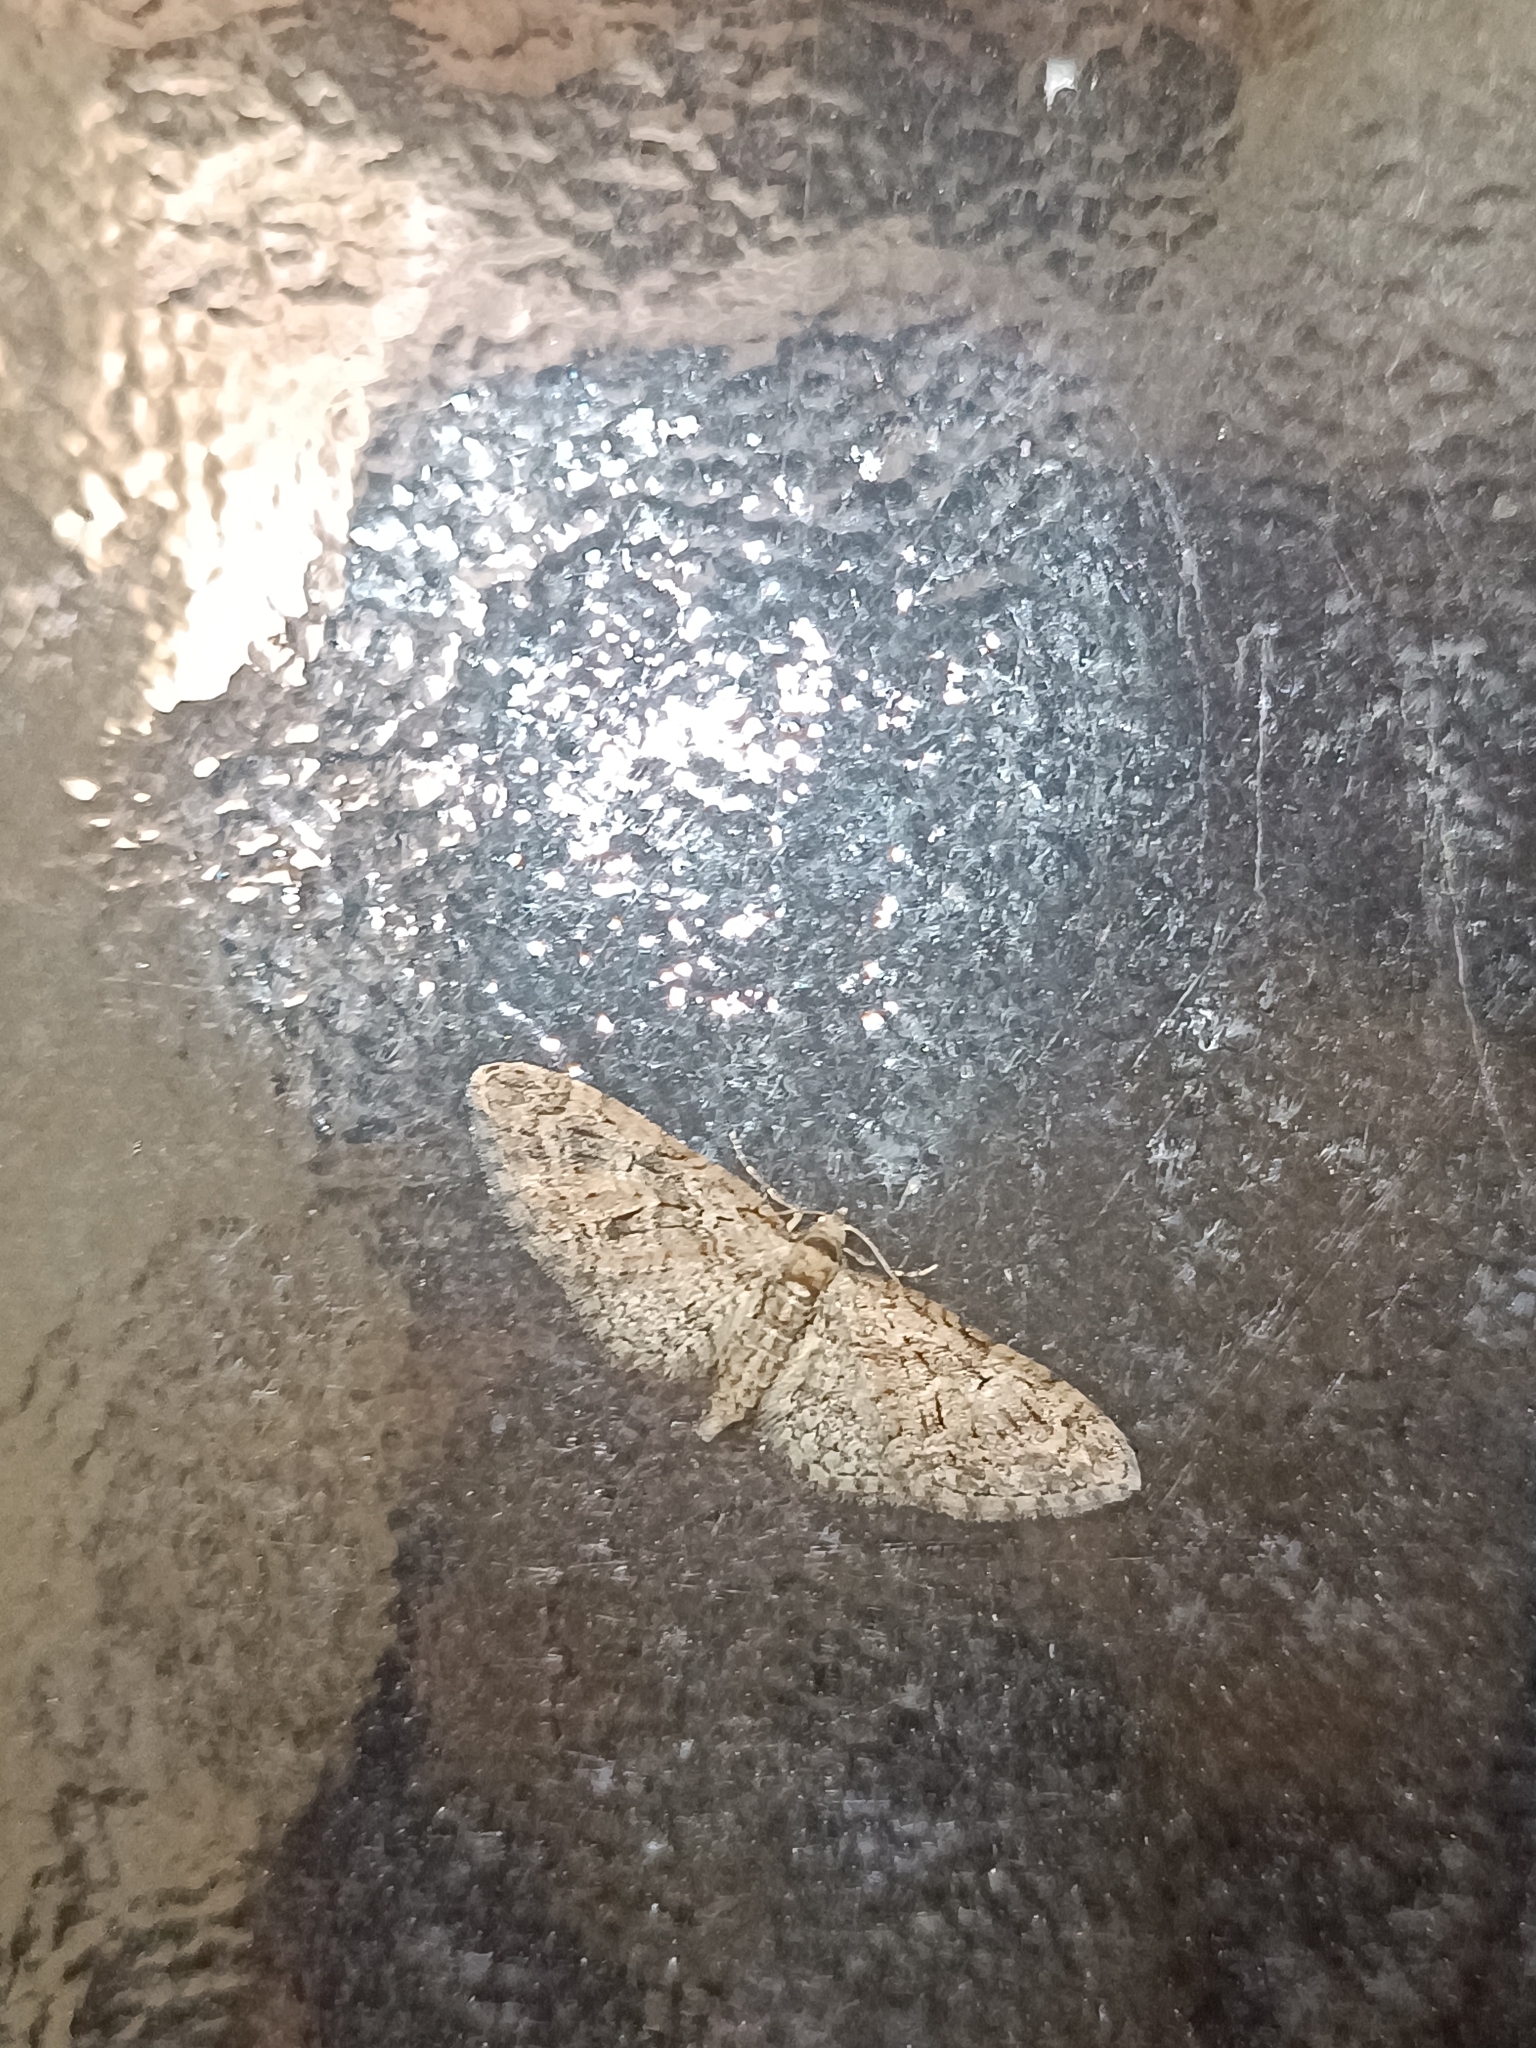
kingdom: Animalia
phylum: Arthropoda
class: Insecta
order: Lepidoptera
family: Geometridae
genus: Eupithecia
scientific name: Eupithecia abbreviata
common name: Brindled pug
